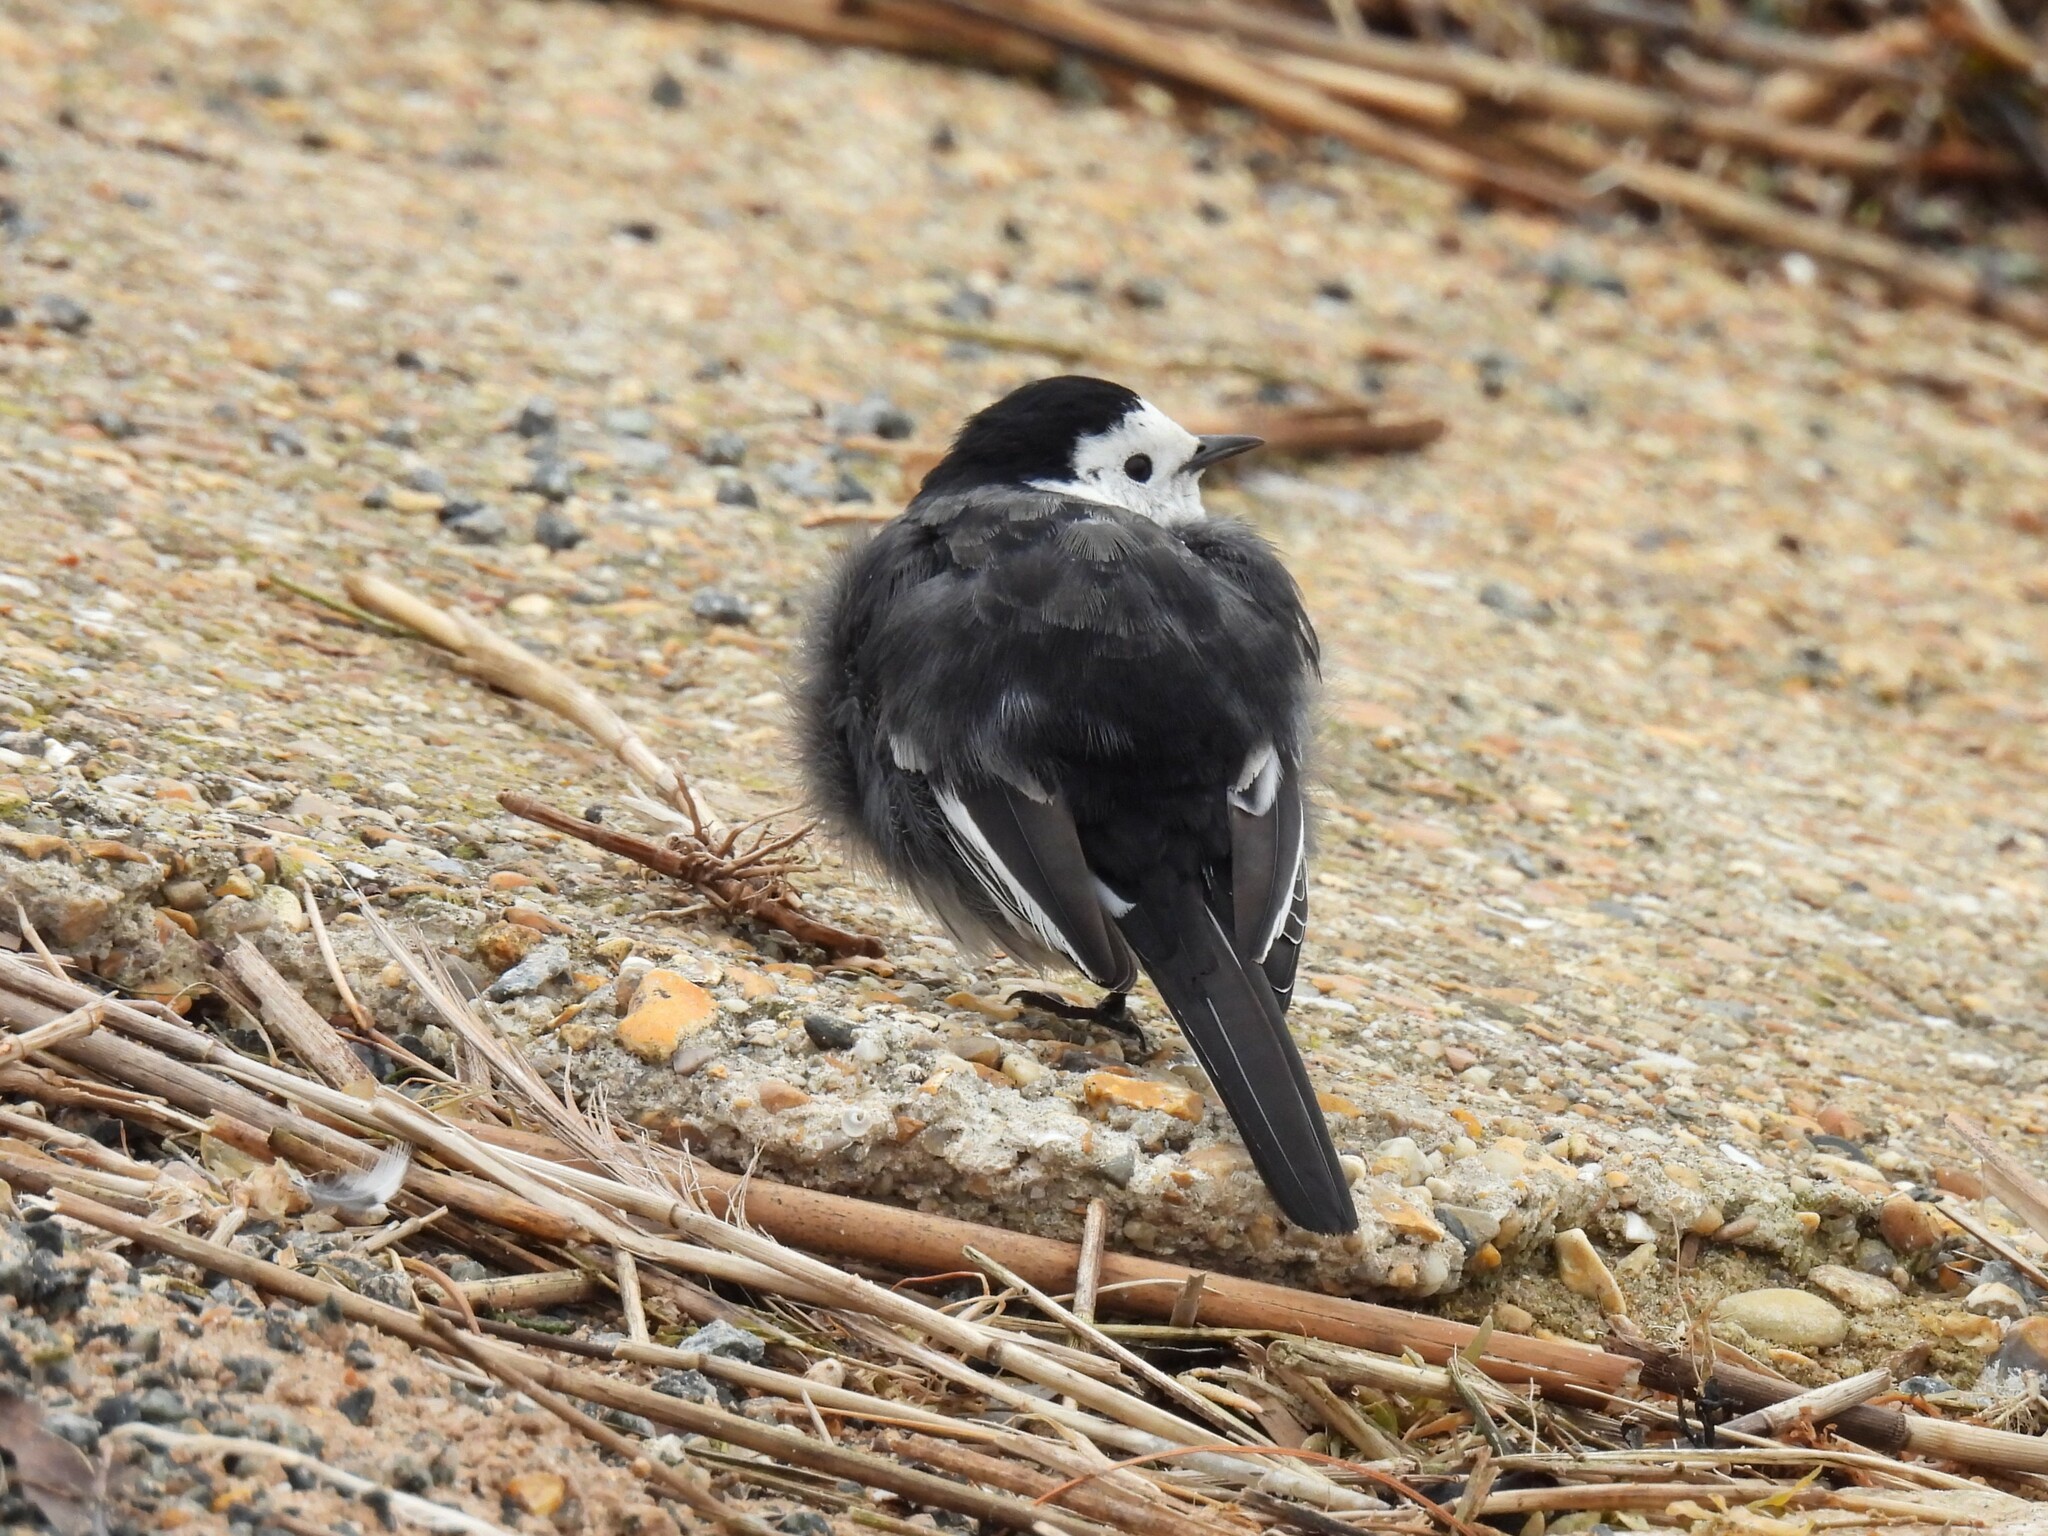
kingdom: Animalia
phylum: Chordata
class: Aves
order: Passeriformes
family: Motacillidae
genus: Motacilla
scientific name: Motacilla alba
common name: White wagtail
